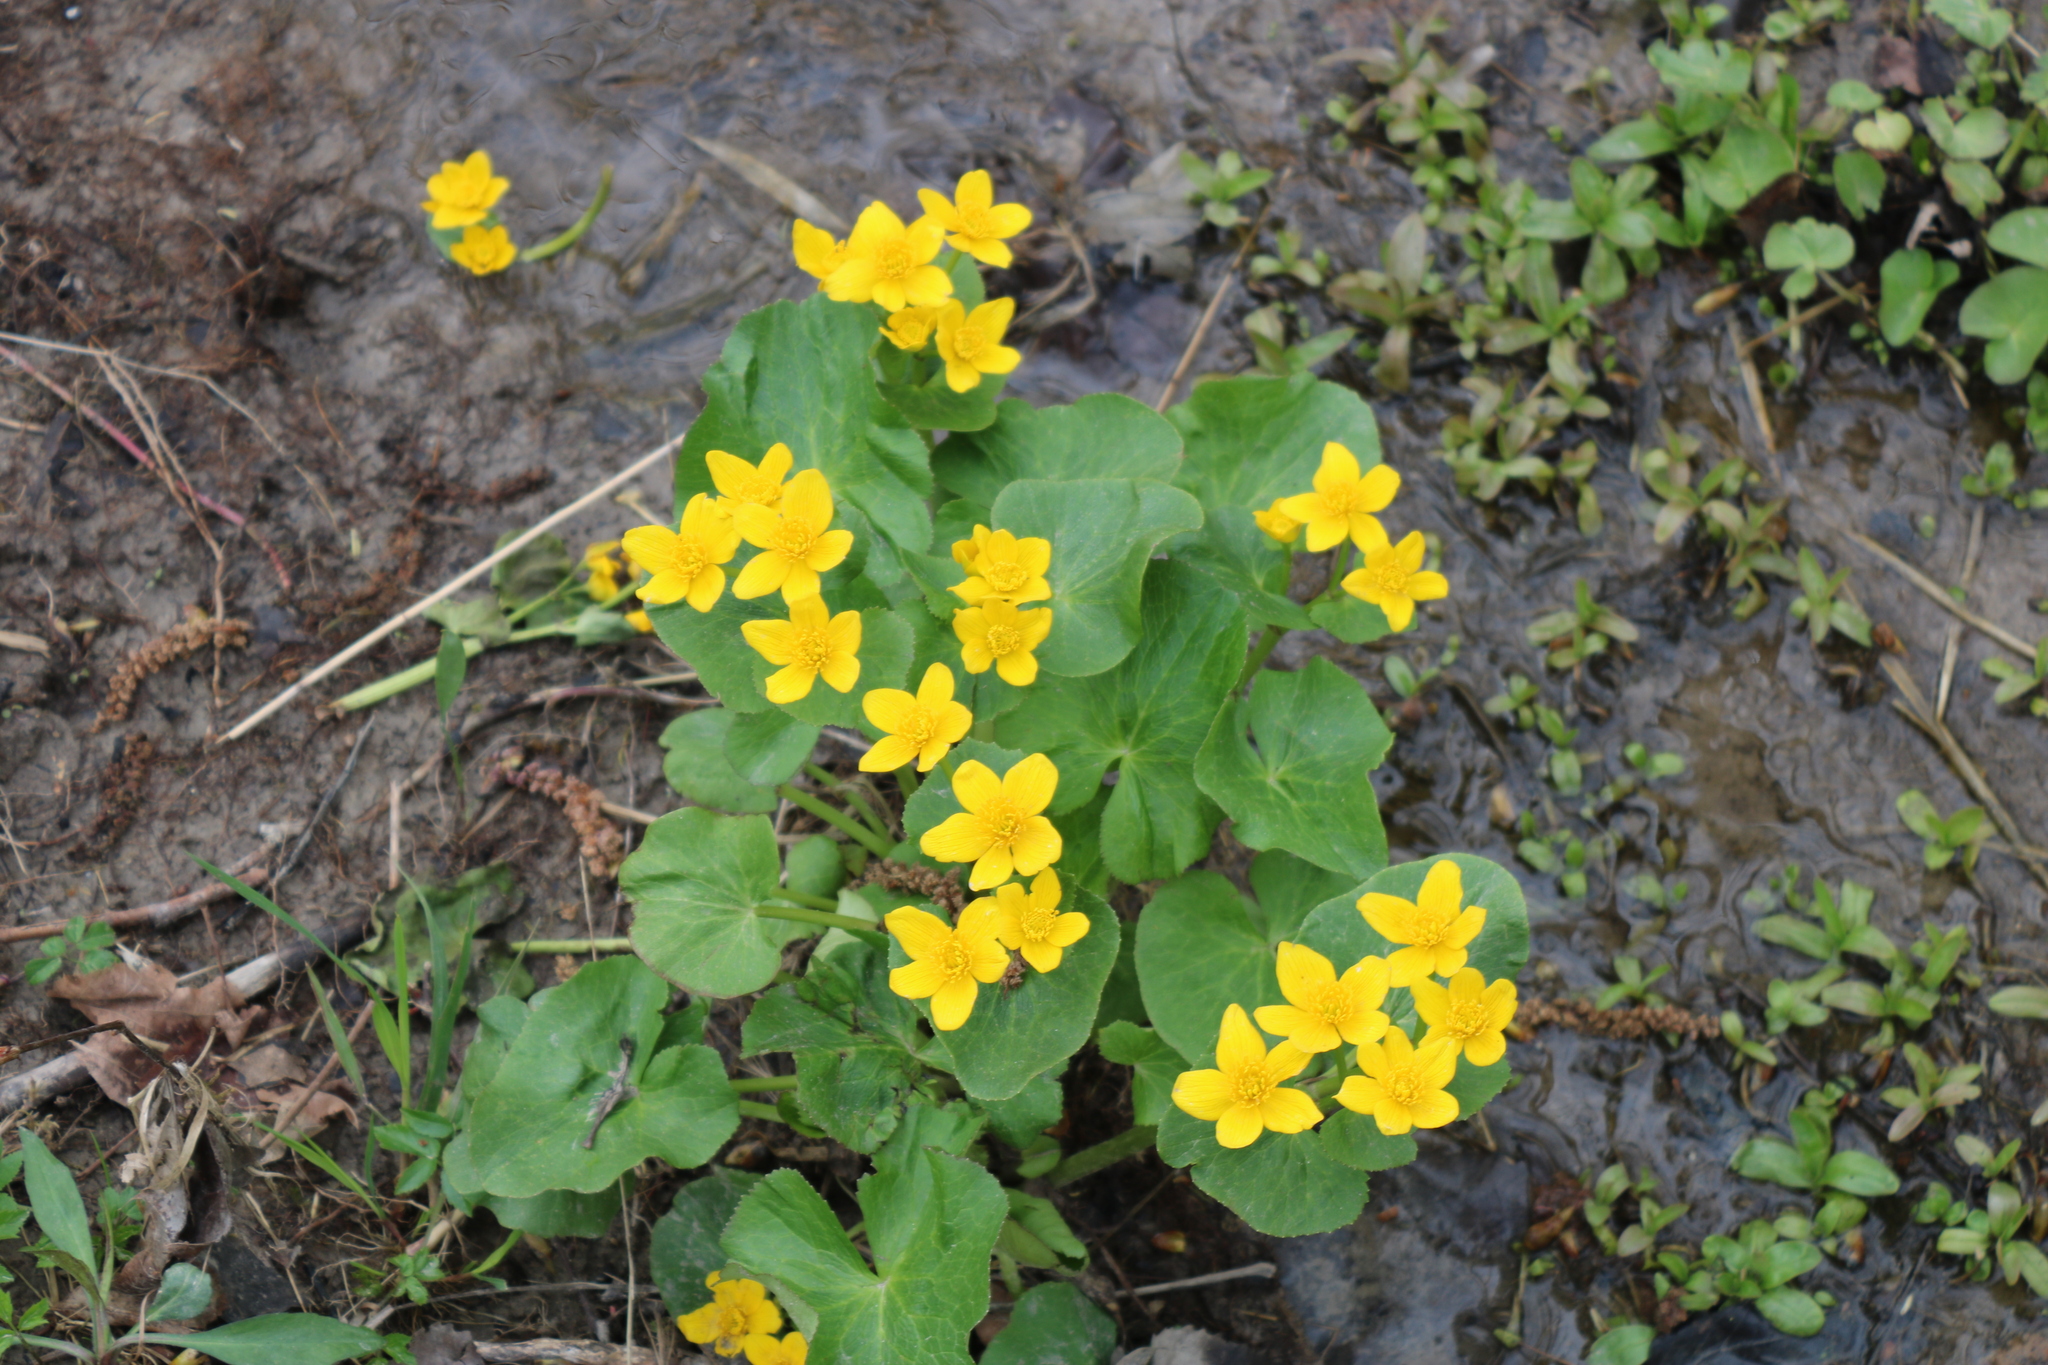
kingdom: Plantae
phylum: Tracheophyta
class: Magnoliopsida
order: Ranunculales
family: Ranunculaceae
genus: Caltha
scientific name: Caltha palustris
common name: Marsh marigold
